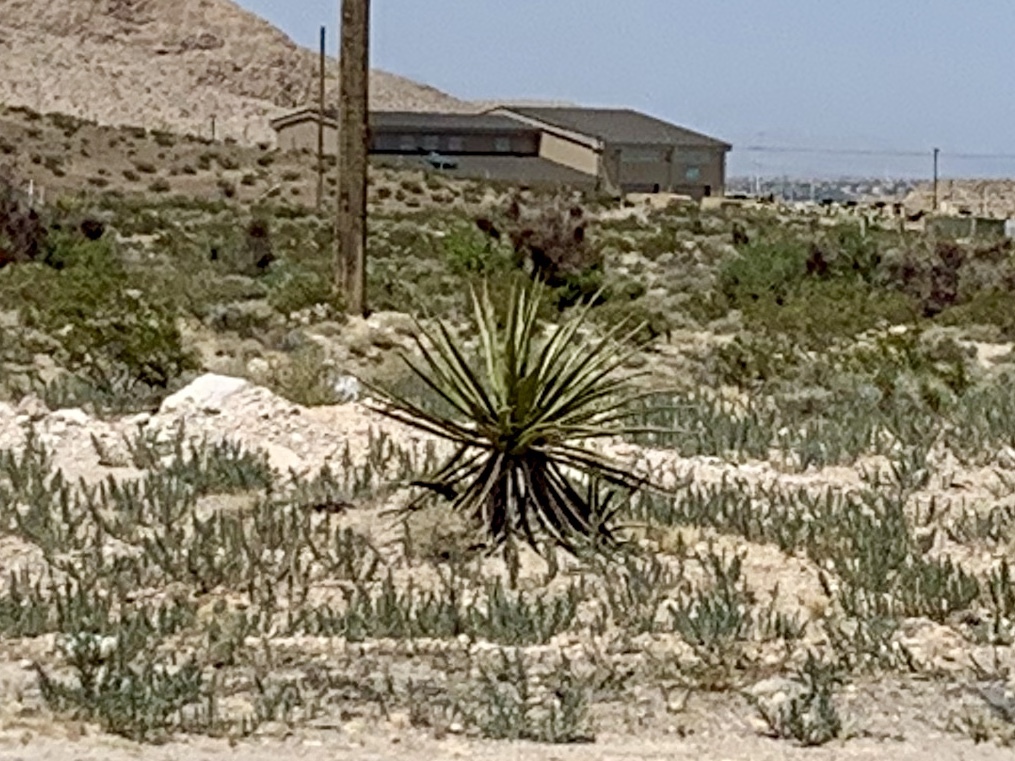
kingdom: Plantae
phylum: Tracheophyta
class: Liliopsida
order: Asparagales
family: Asparagaceae
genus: Yucca
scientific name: Yucca schidigera
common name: Mojave yucca
